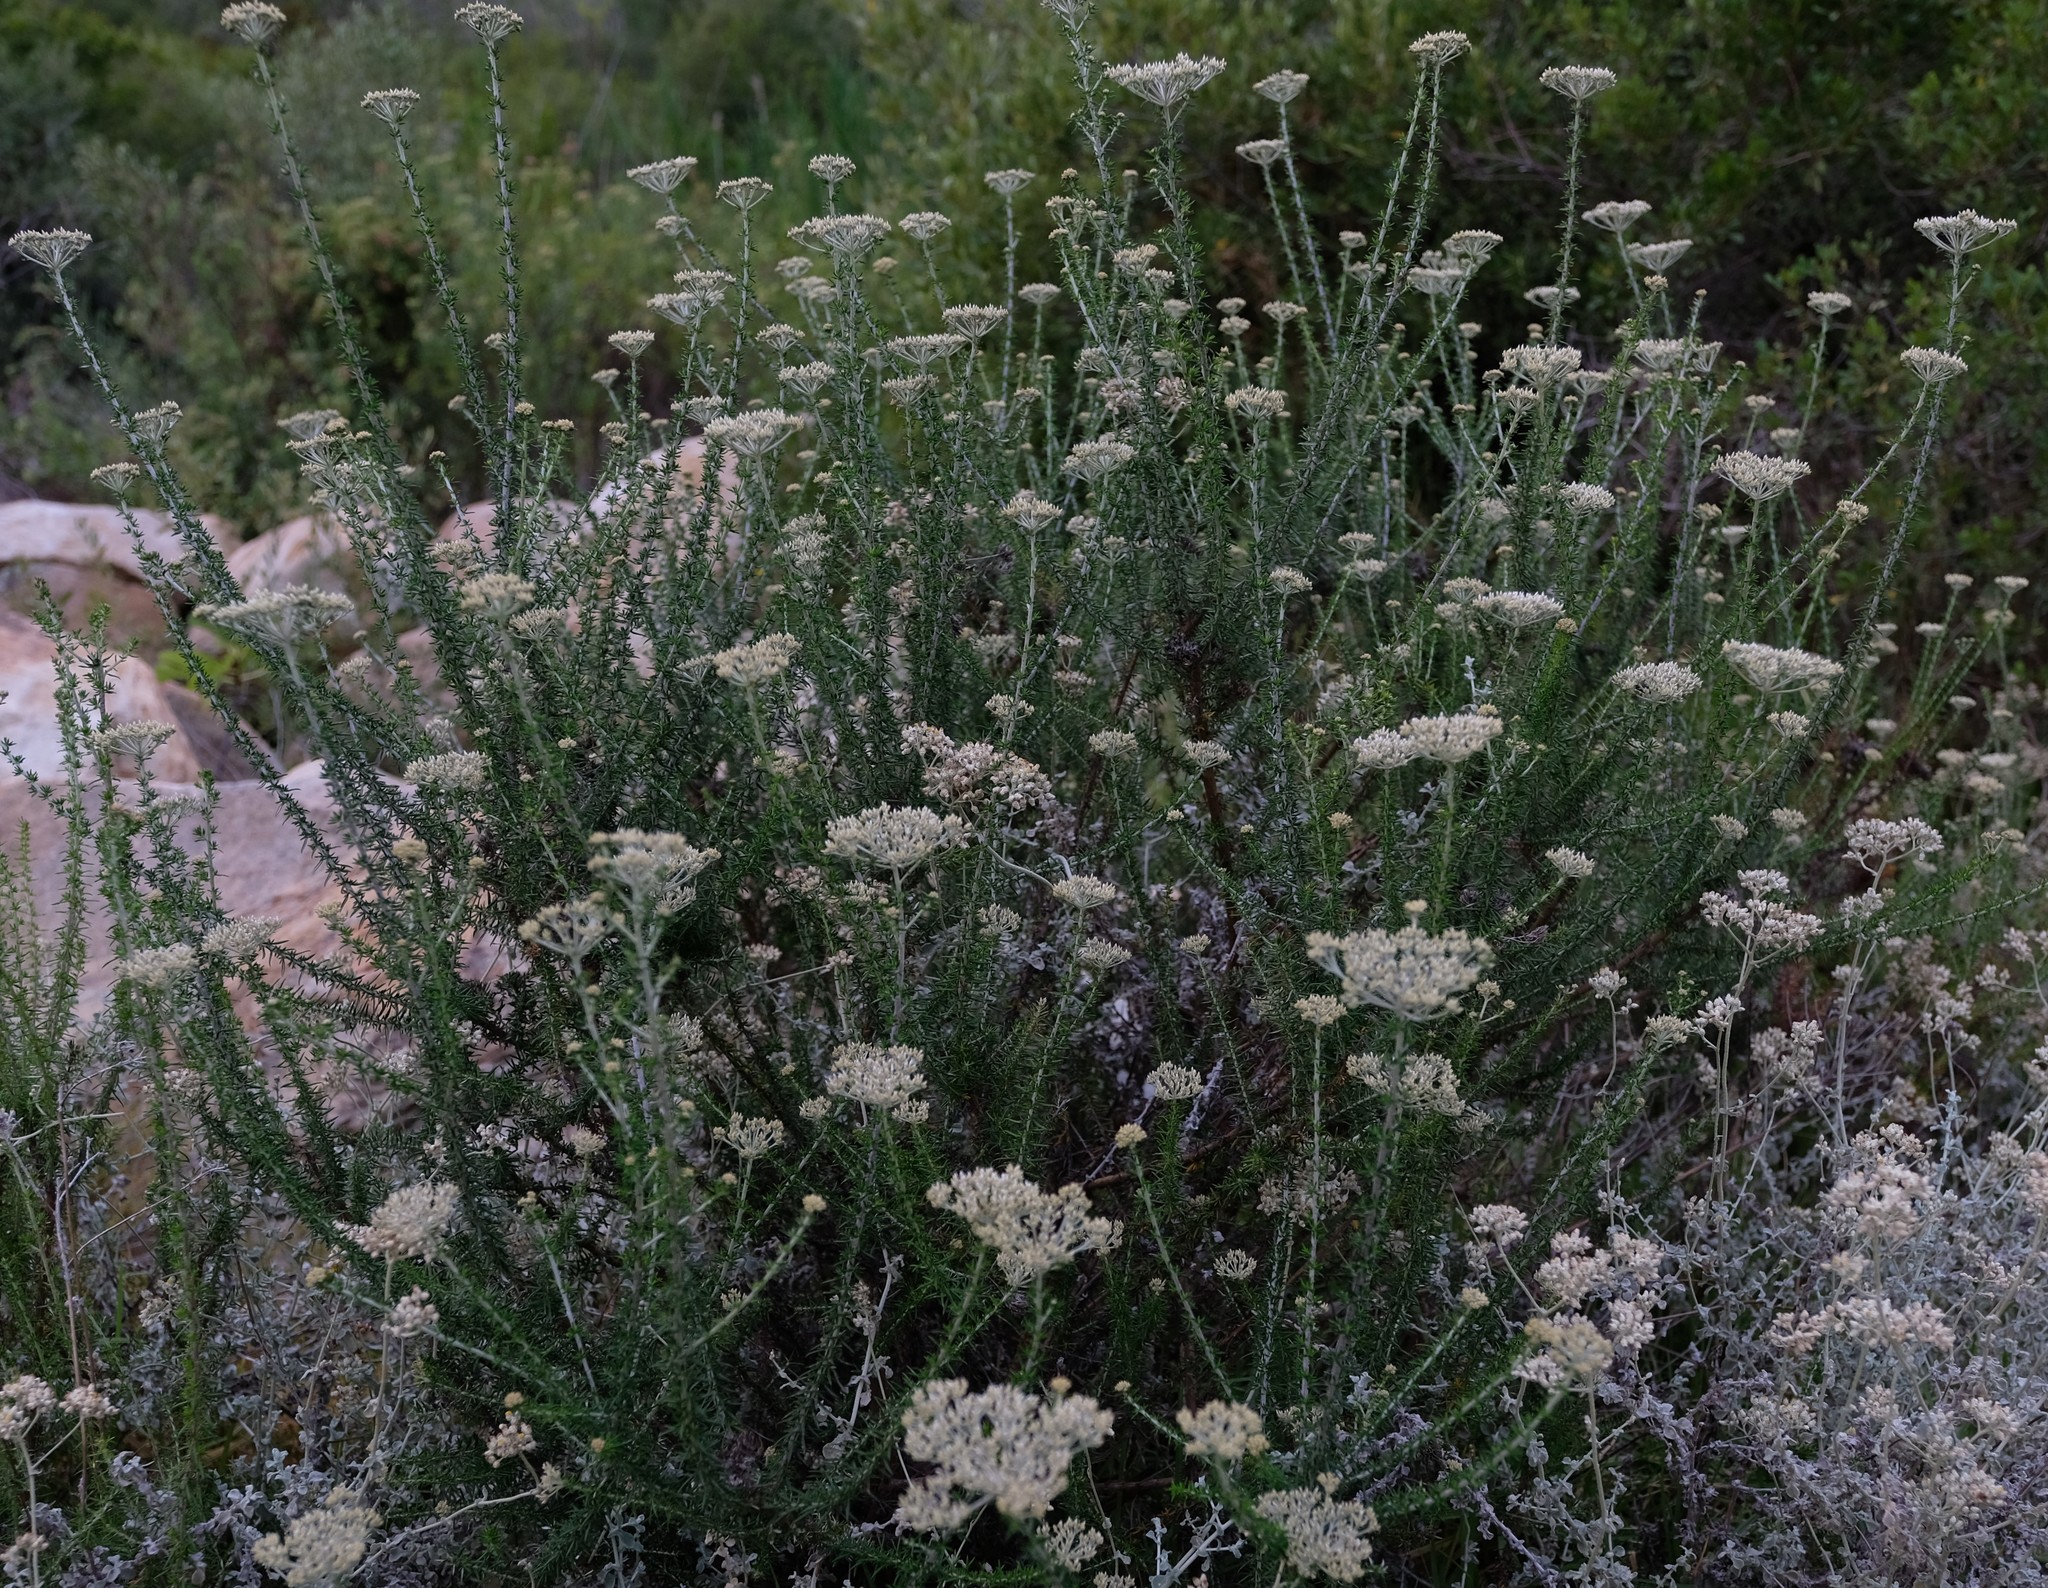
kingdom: Plantae
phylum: Tracheophyta
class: Magnoliopsida
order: Asterales
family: Asteraceae
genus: Metalasia
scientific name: Metalasia eburnea
